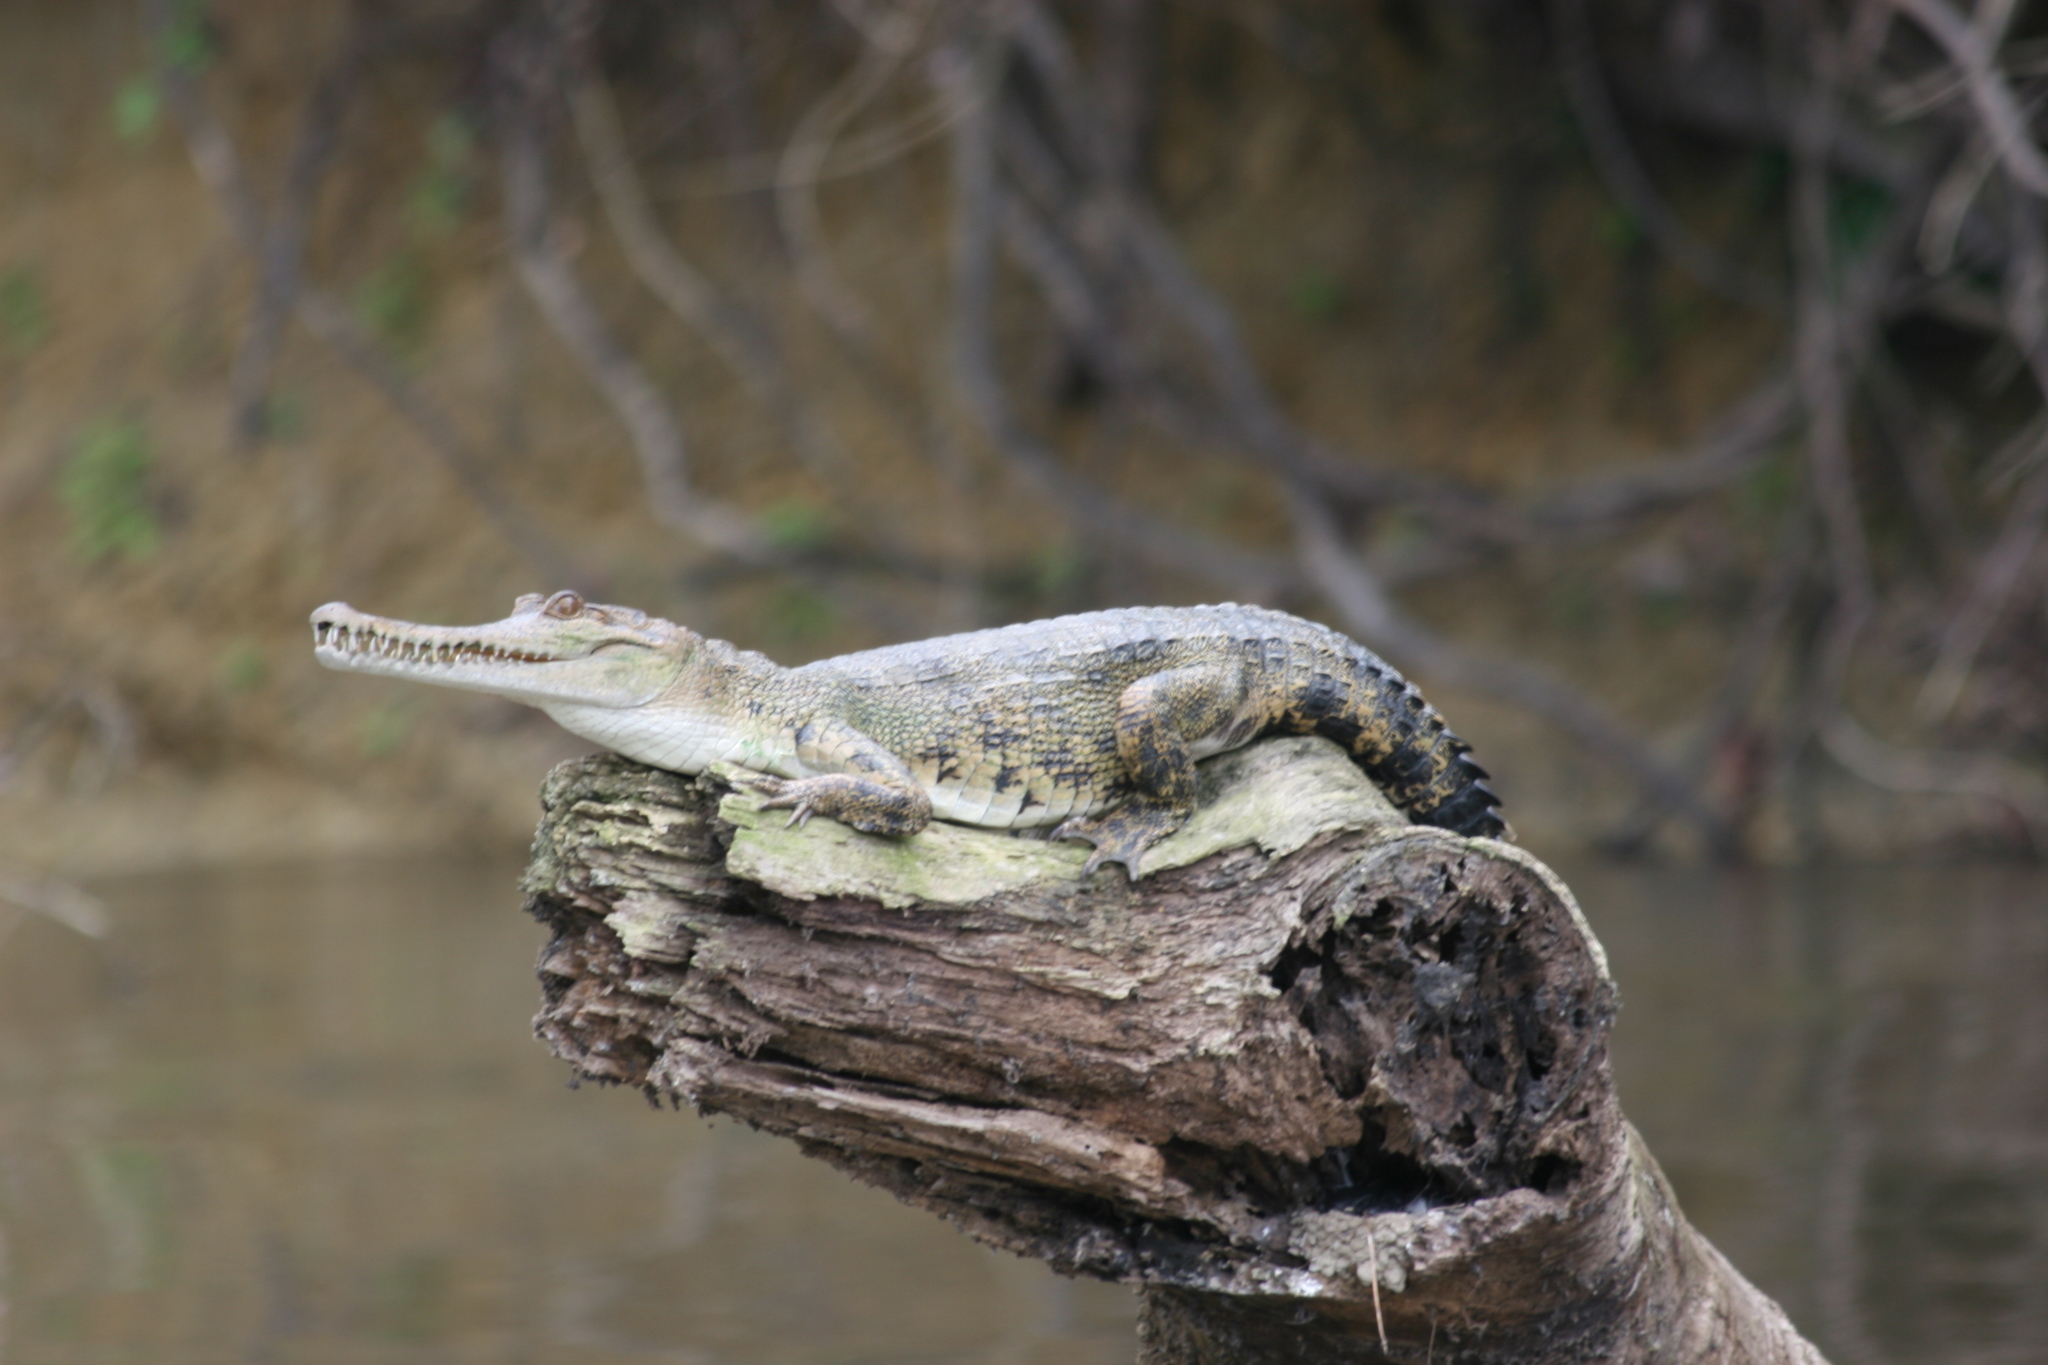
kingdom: Animalia
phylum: Chordata
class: Crocodylia
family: Crocodylidae
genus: Mecistops
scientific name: Mecistops leptorhynchus
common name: Central african slender-snouted crocodile
